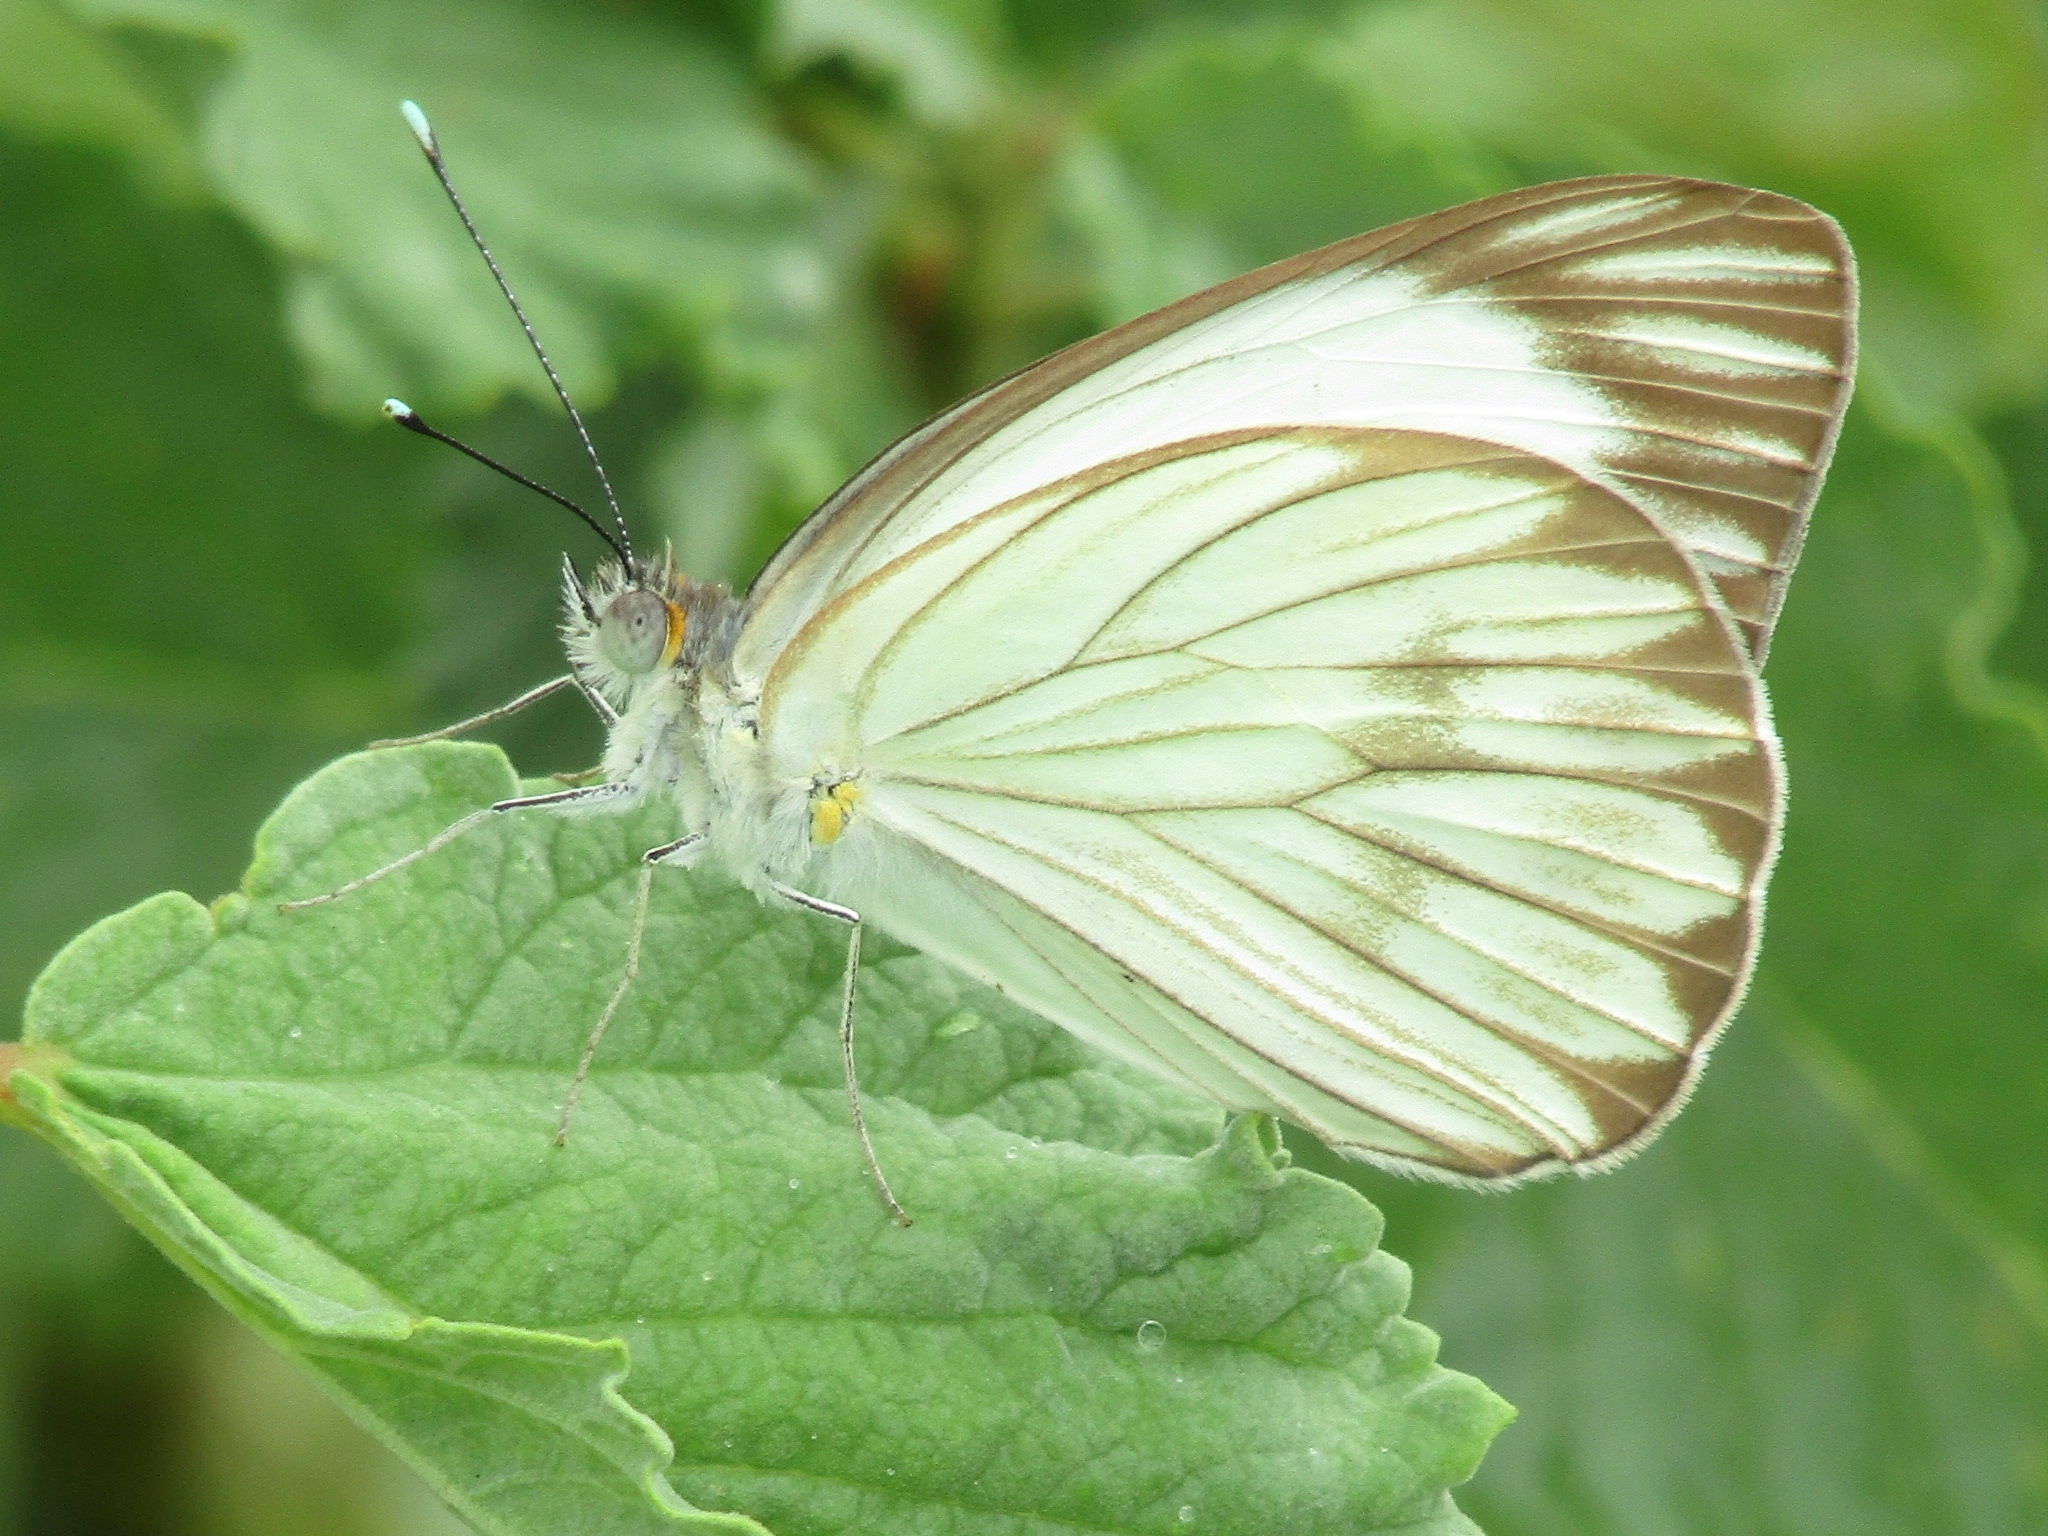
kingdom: Animalia
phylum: Arthropoda
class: Insecta
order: Lepidoptera
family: Pieridae
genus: Ascia
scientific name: Ascia monuste
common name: Great southern white
